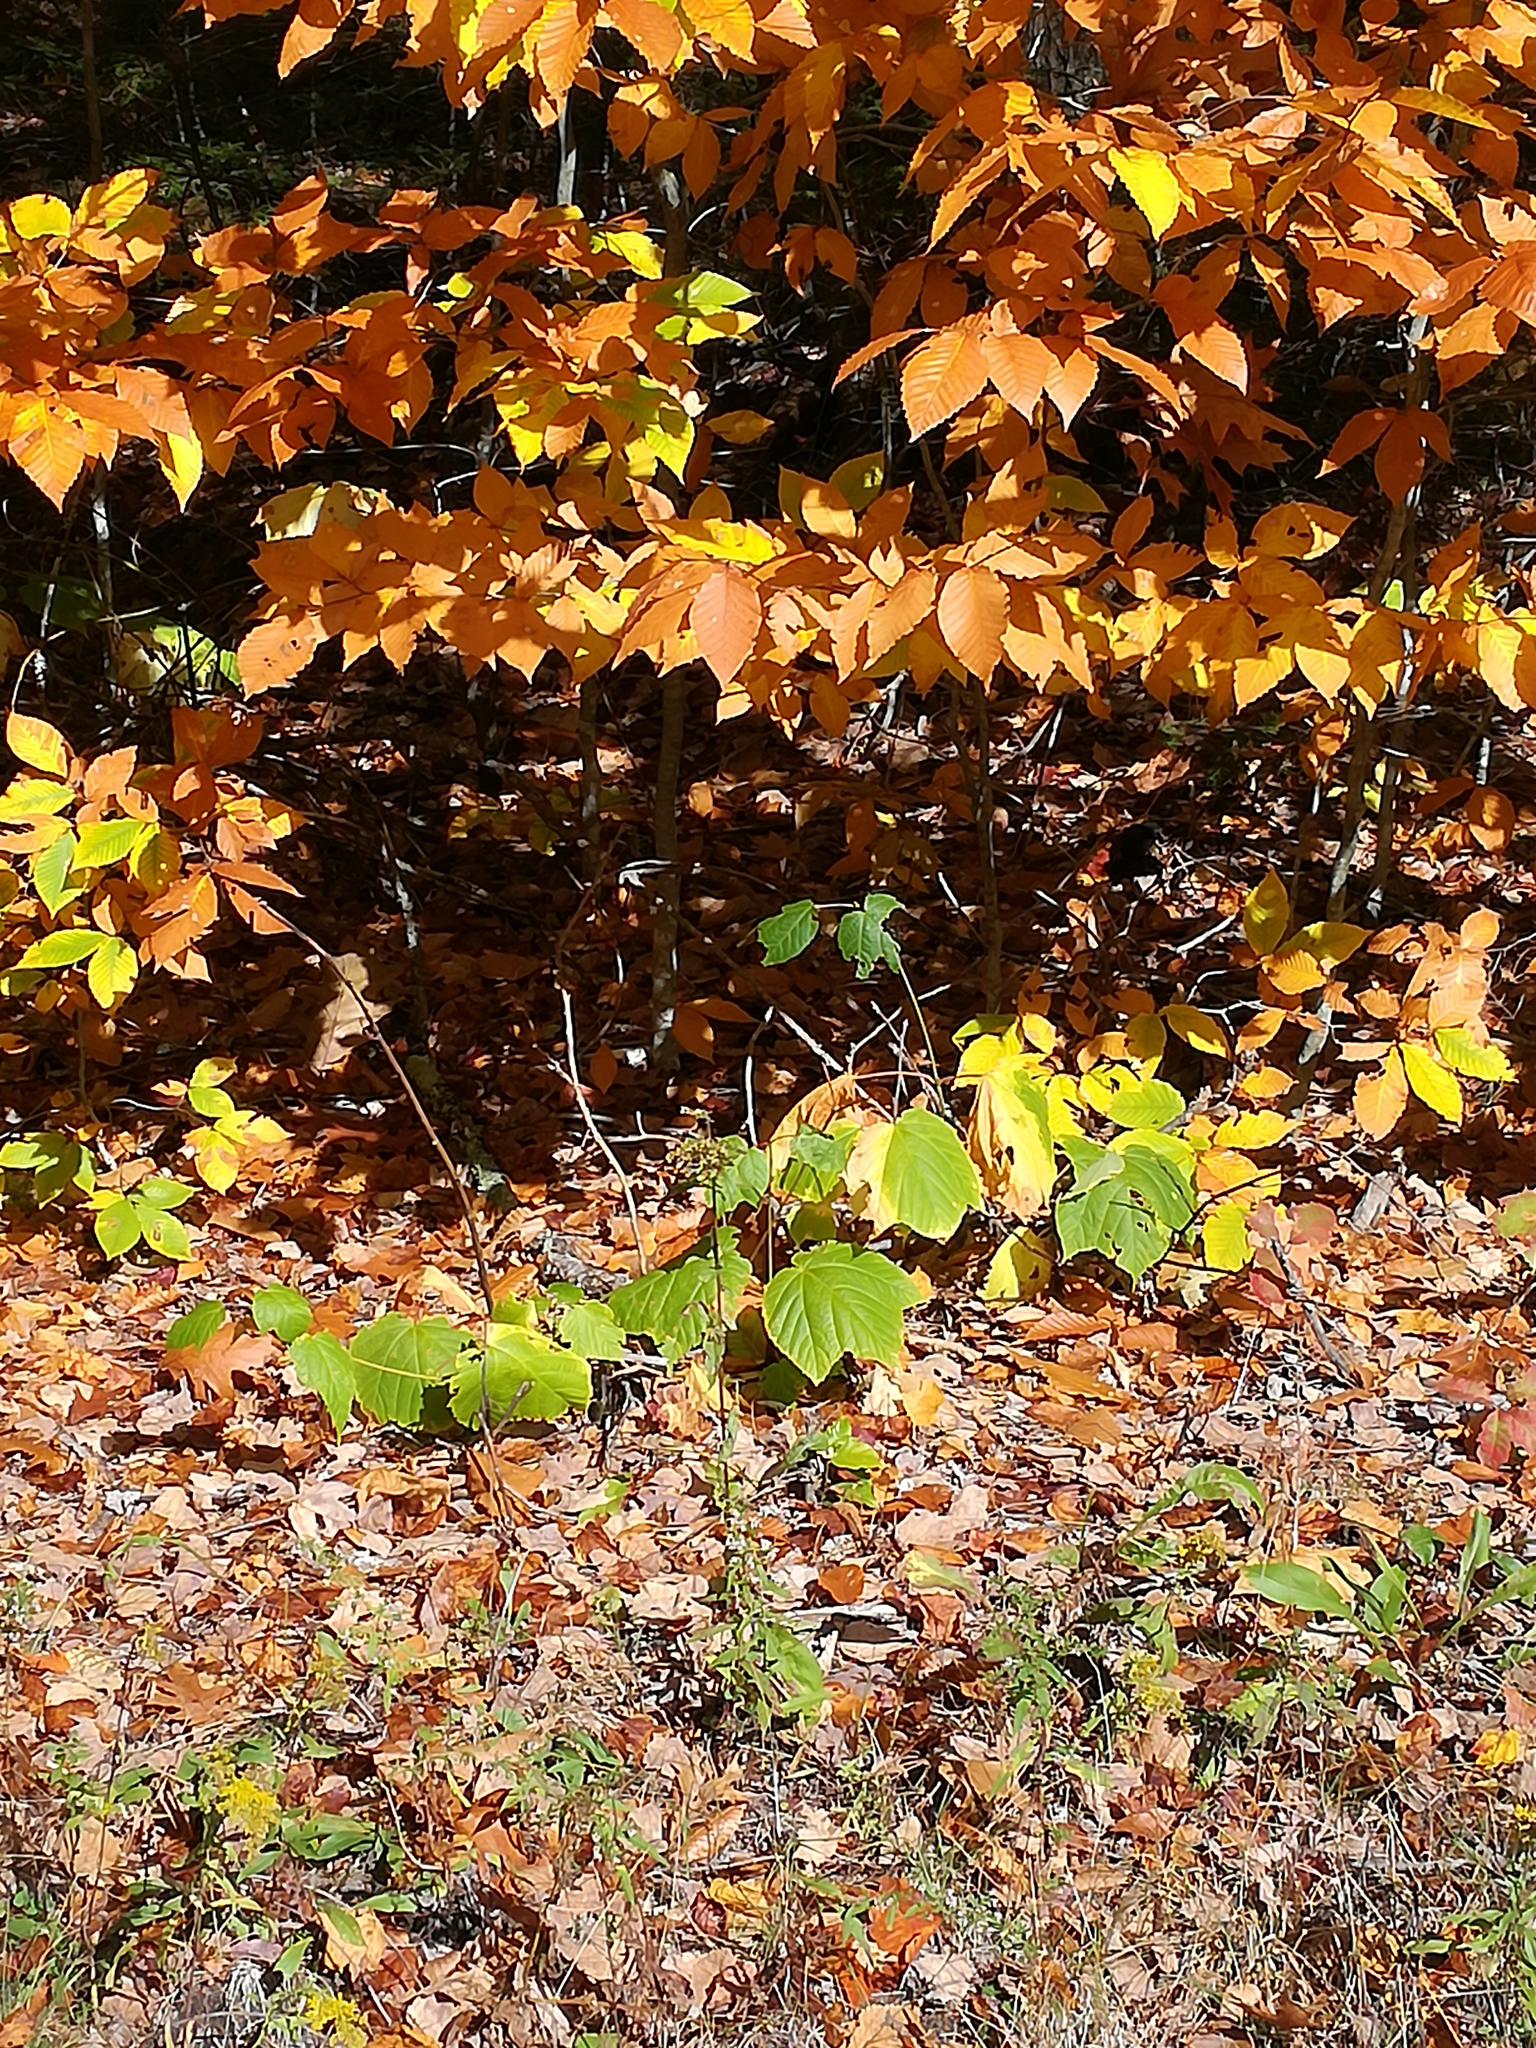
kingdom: Plantae
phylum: Tracheophyta
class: Magnoliopsida
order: Fagales
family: Fagaceae
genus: Fagus
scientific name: Fagus grandifolia
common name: American beech
